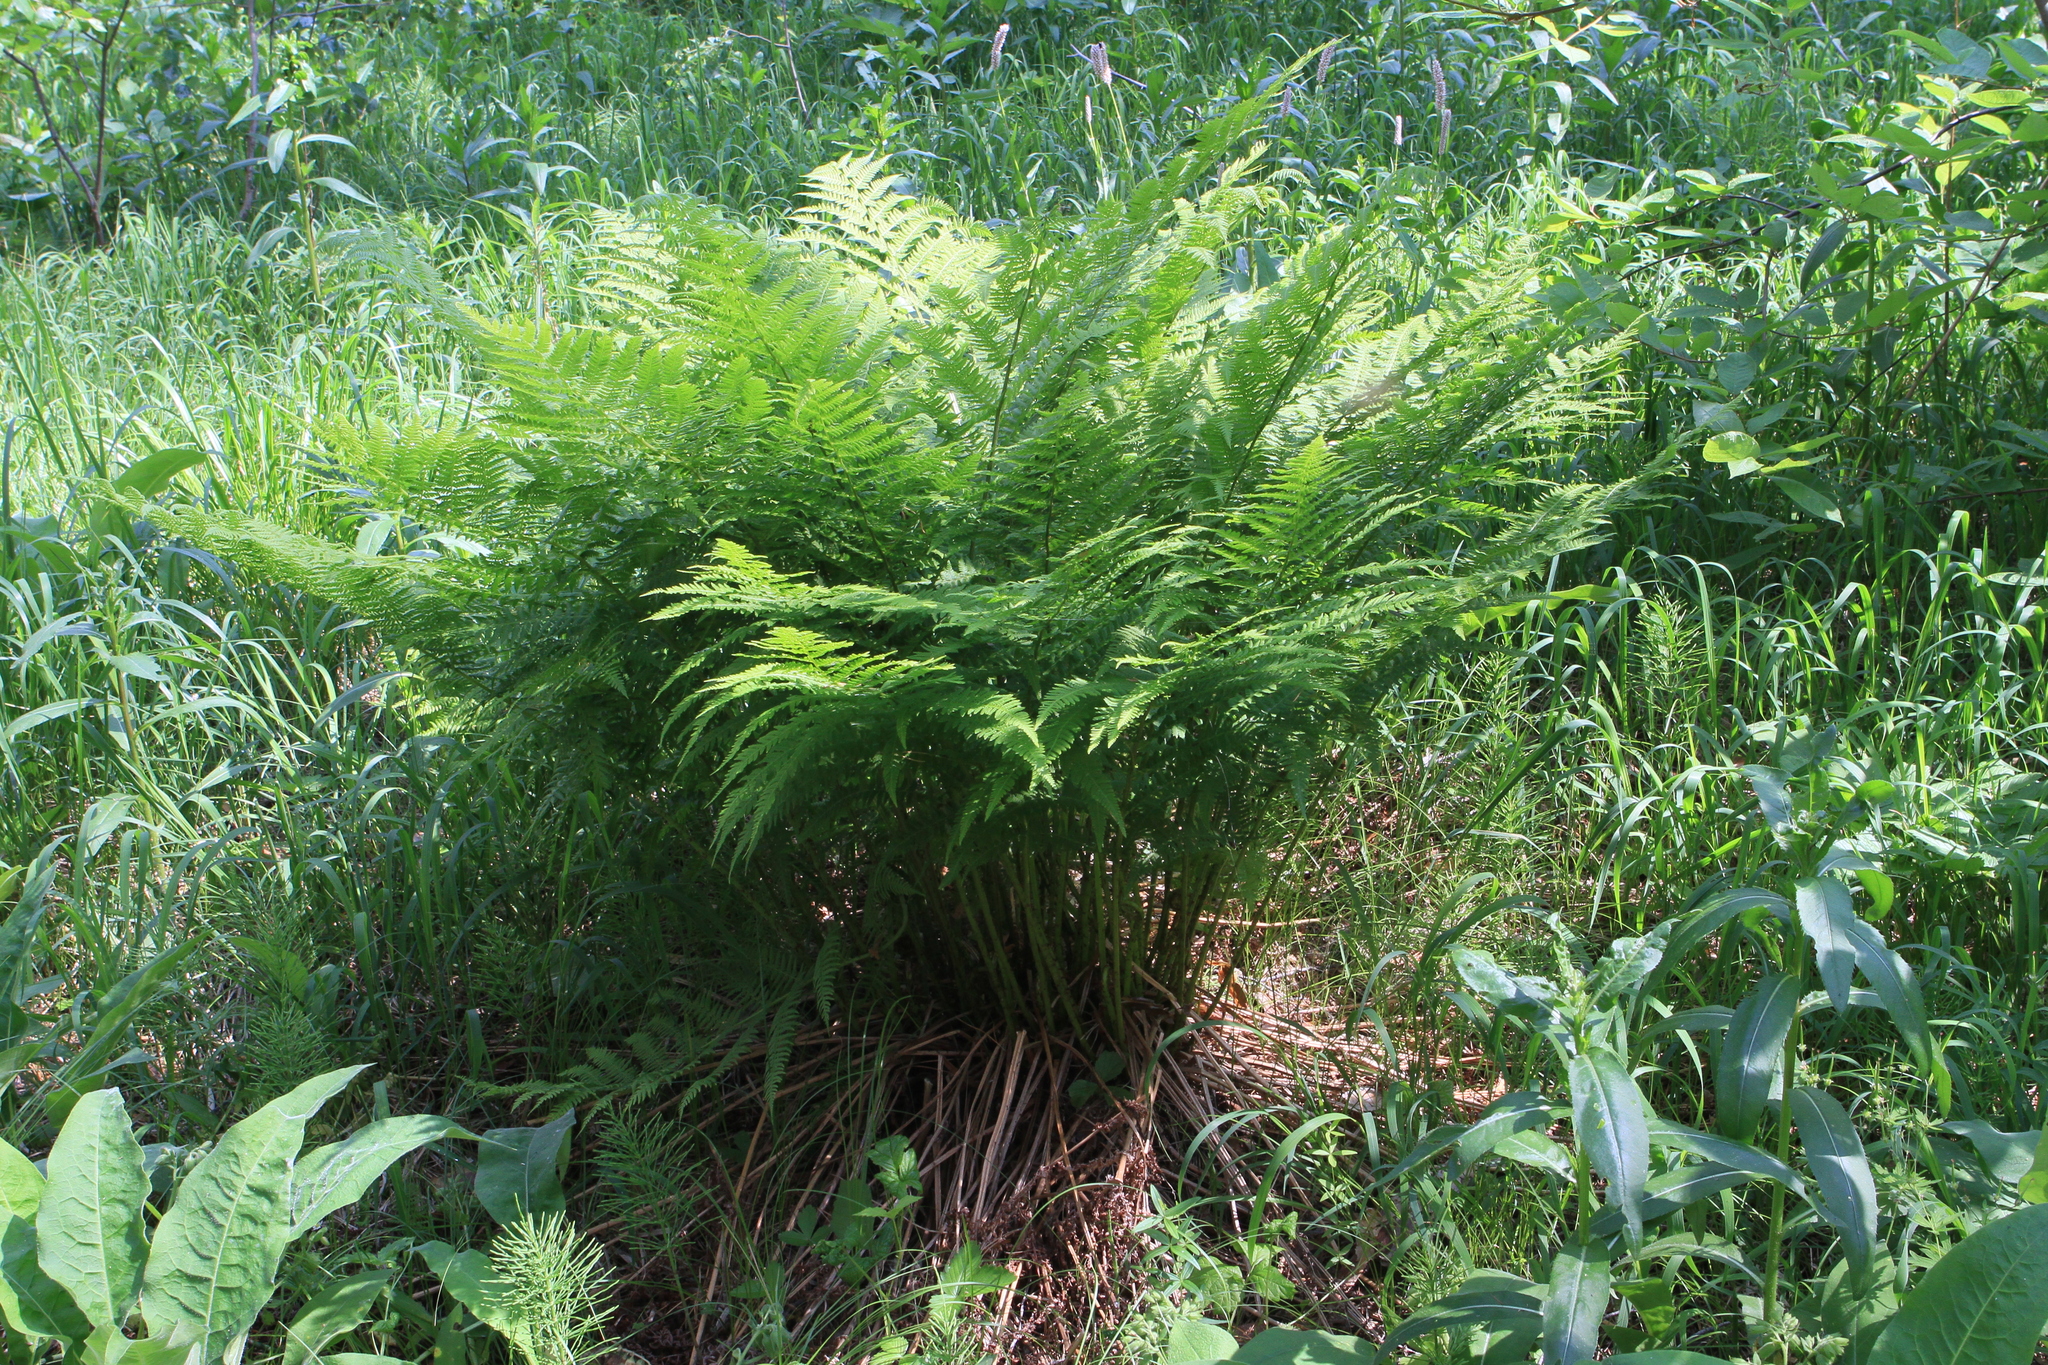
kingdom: Plantae
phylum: Tracheophyta
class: Polypodiopsida
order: Polypodiales
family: Athyriaceae
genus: Athyrium
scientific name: Athyrium filix-femina
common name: Lady fern
